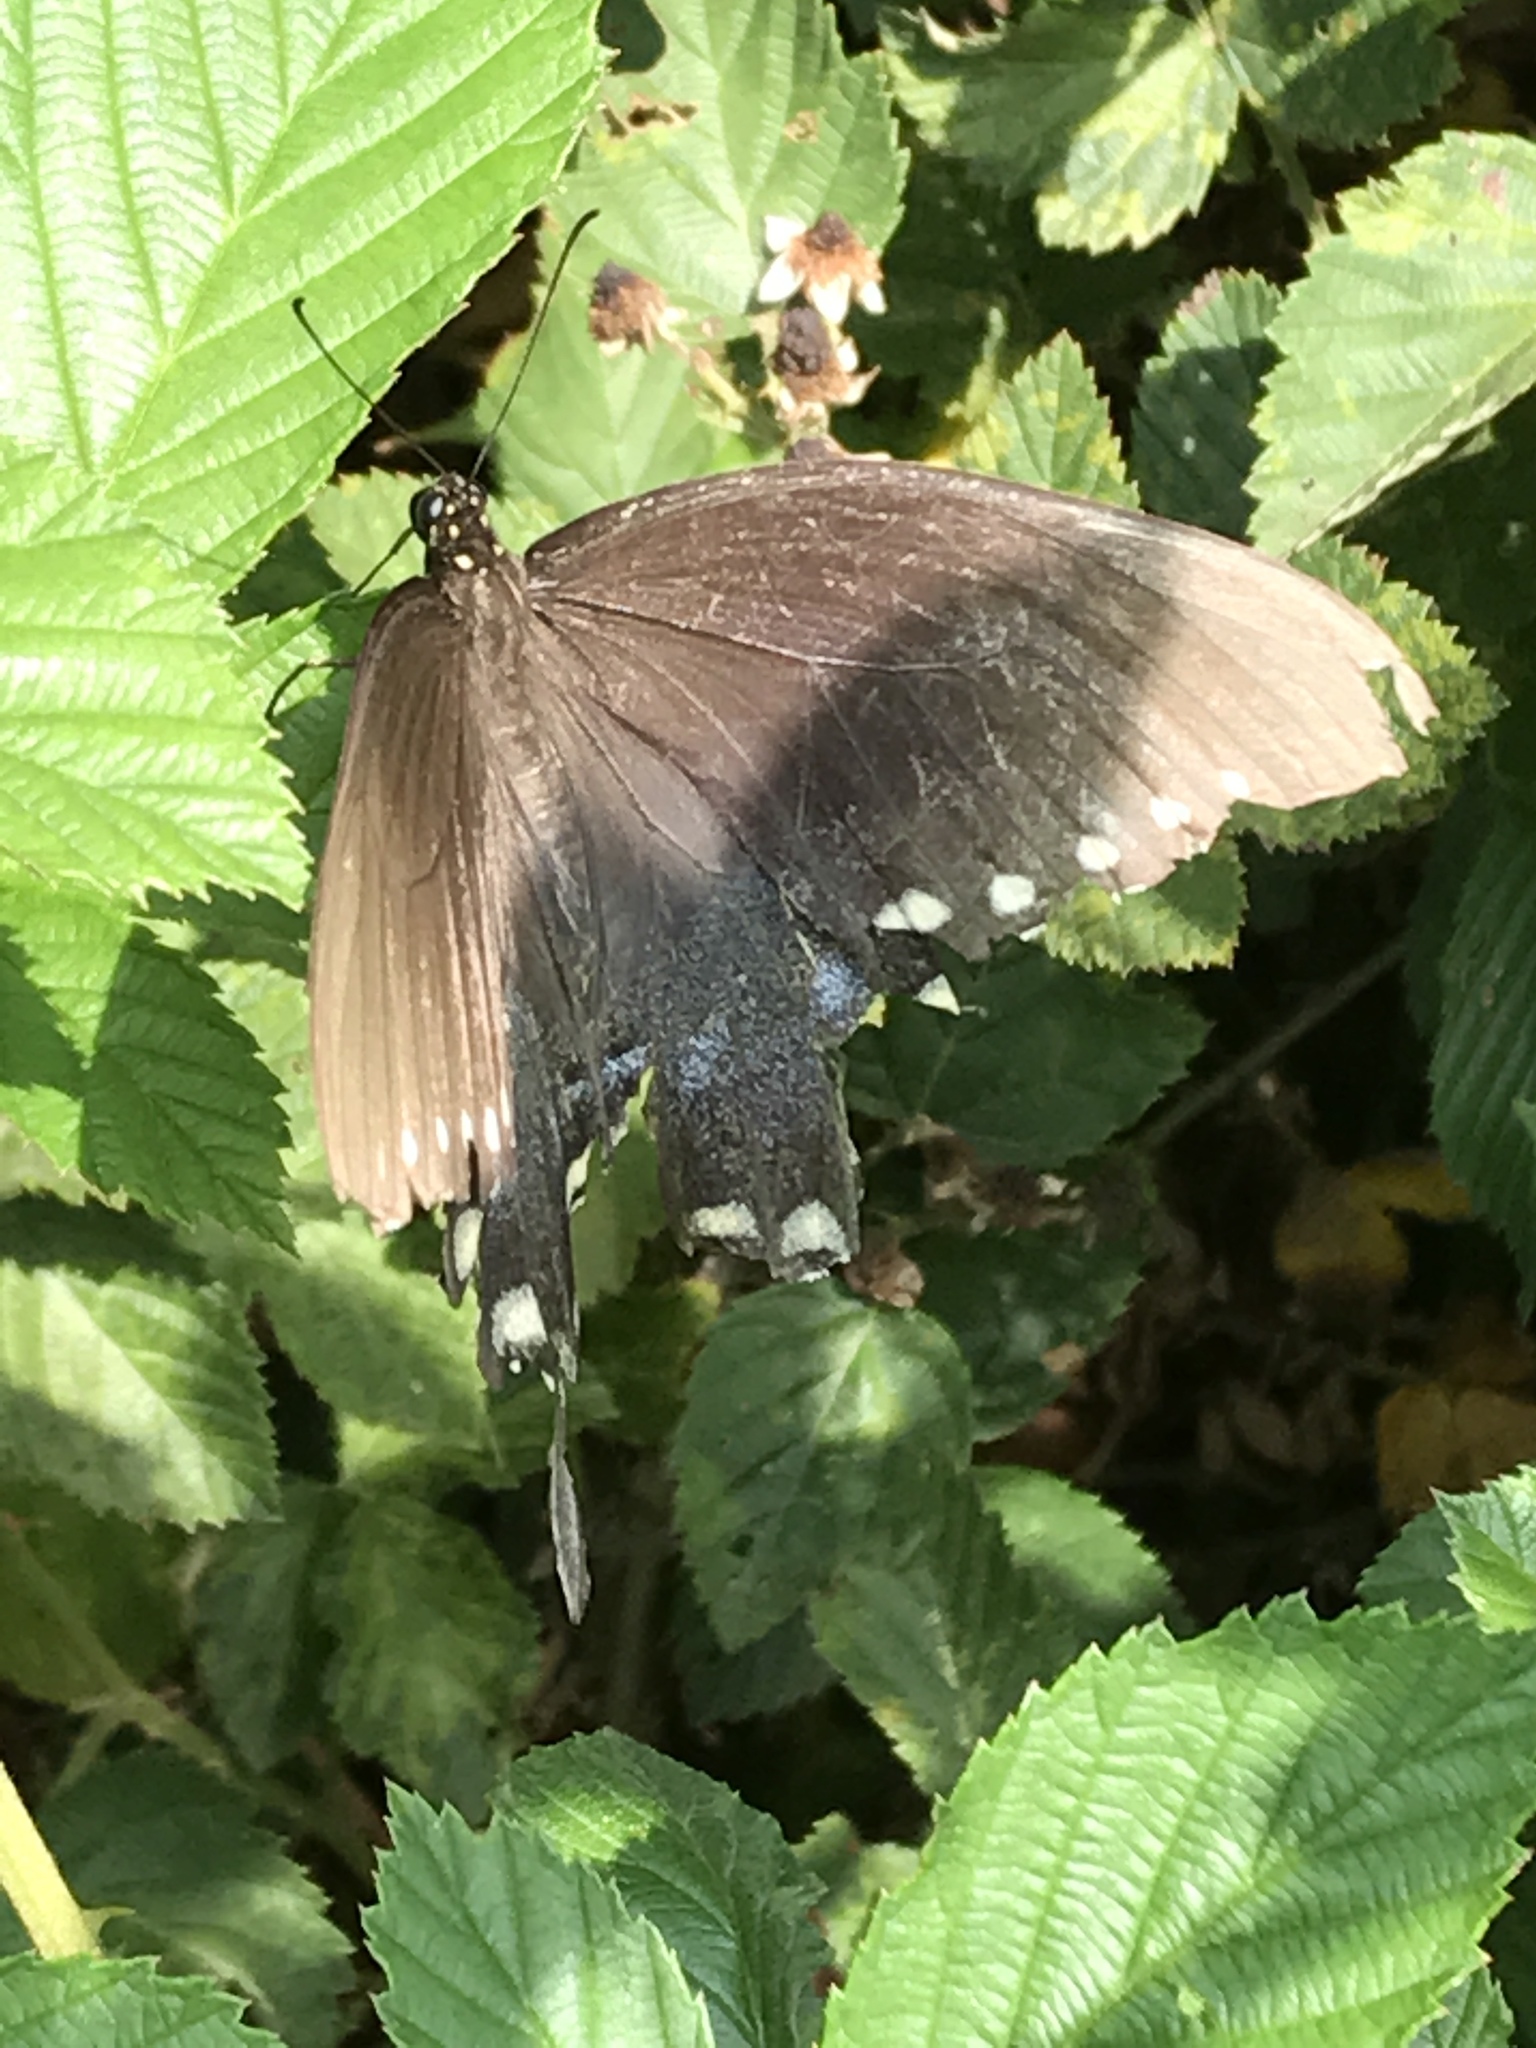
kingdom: Animalia
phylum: Arthropoda
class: Insecta
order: Lepidoptera
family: Papilionidae
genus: Papilio
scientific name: Papilio troilus
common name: Spicebush swallowtail
